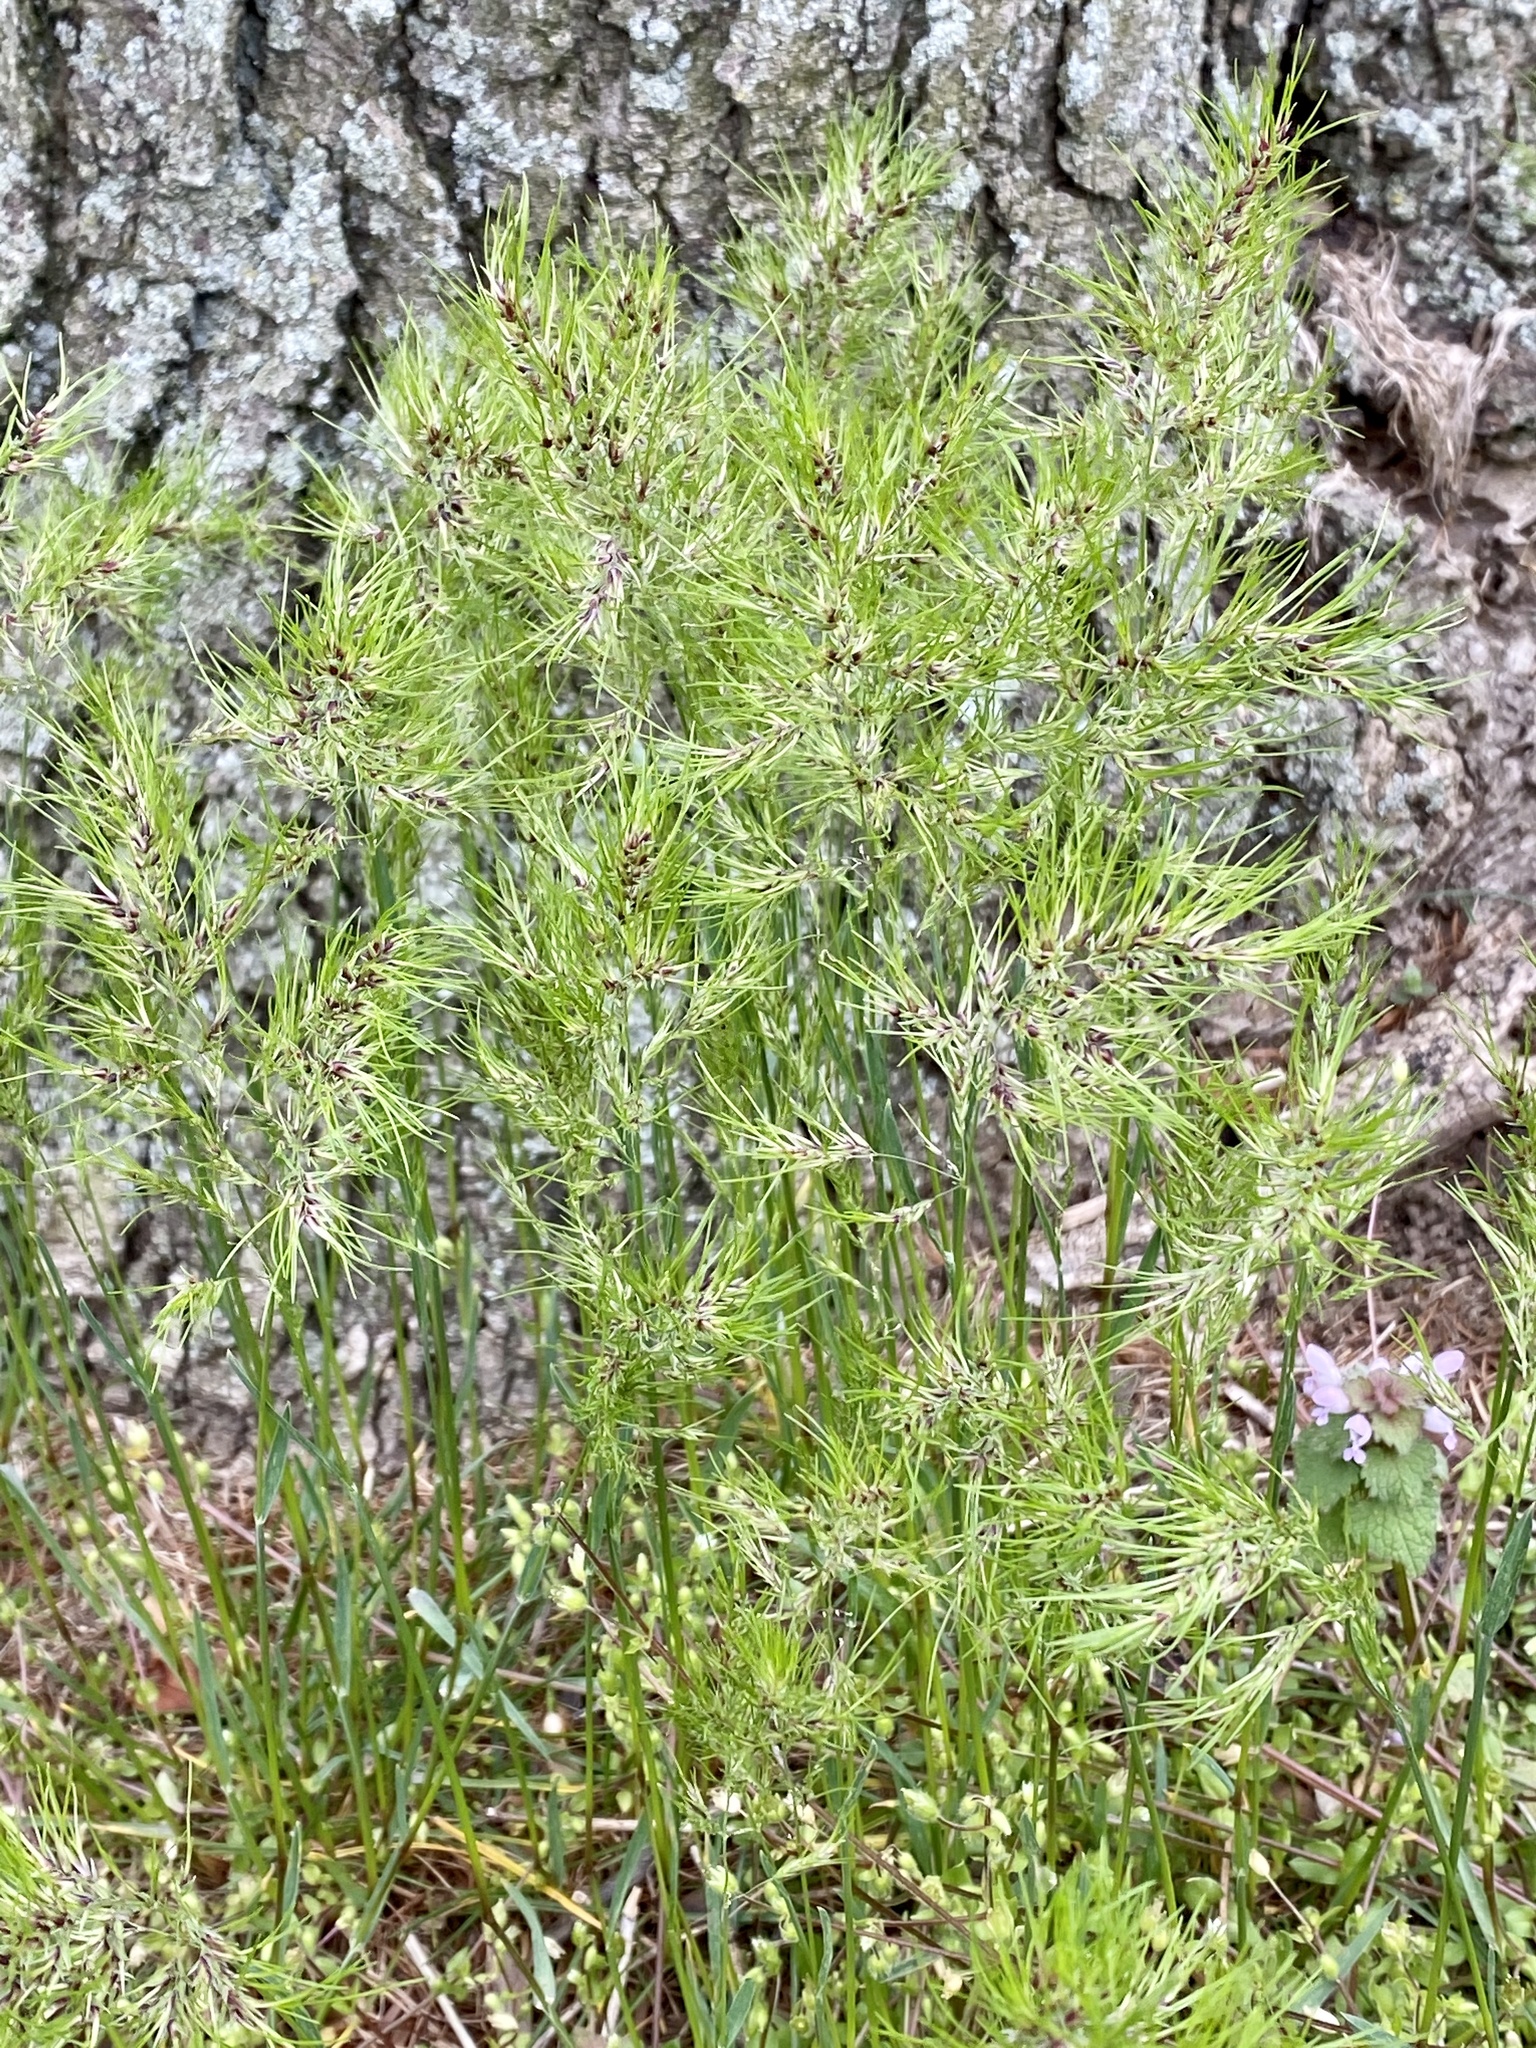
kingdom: Plantae
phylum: Tracheophyta
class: Liliopsida
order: Poales
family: Poaceae
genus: Poa
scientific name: Poa bulbosa
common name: Bulbous bluegrass
